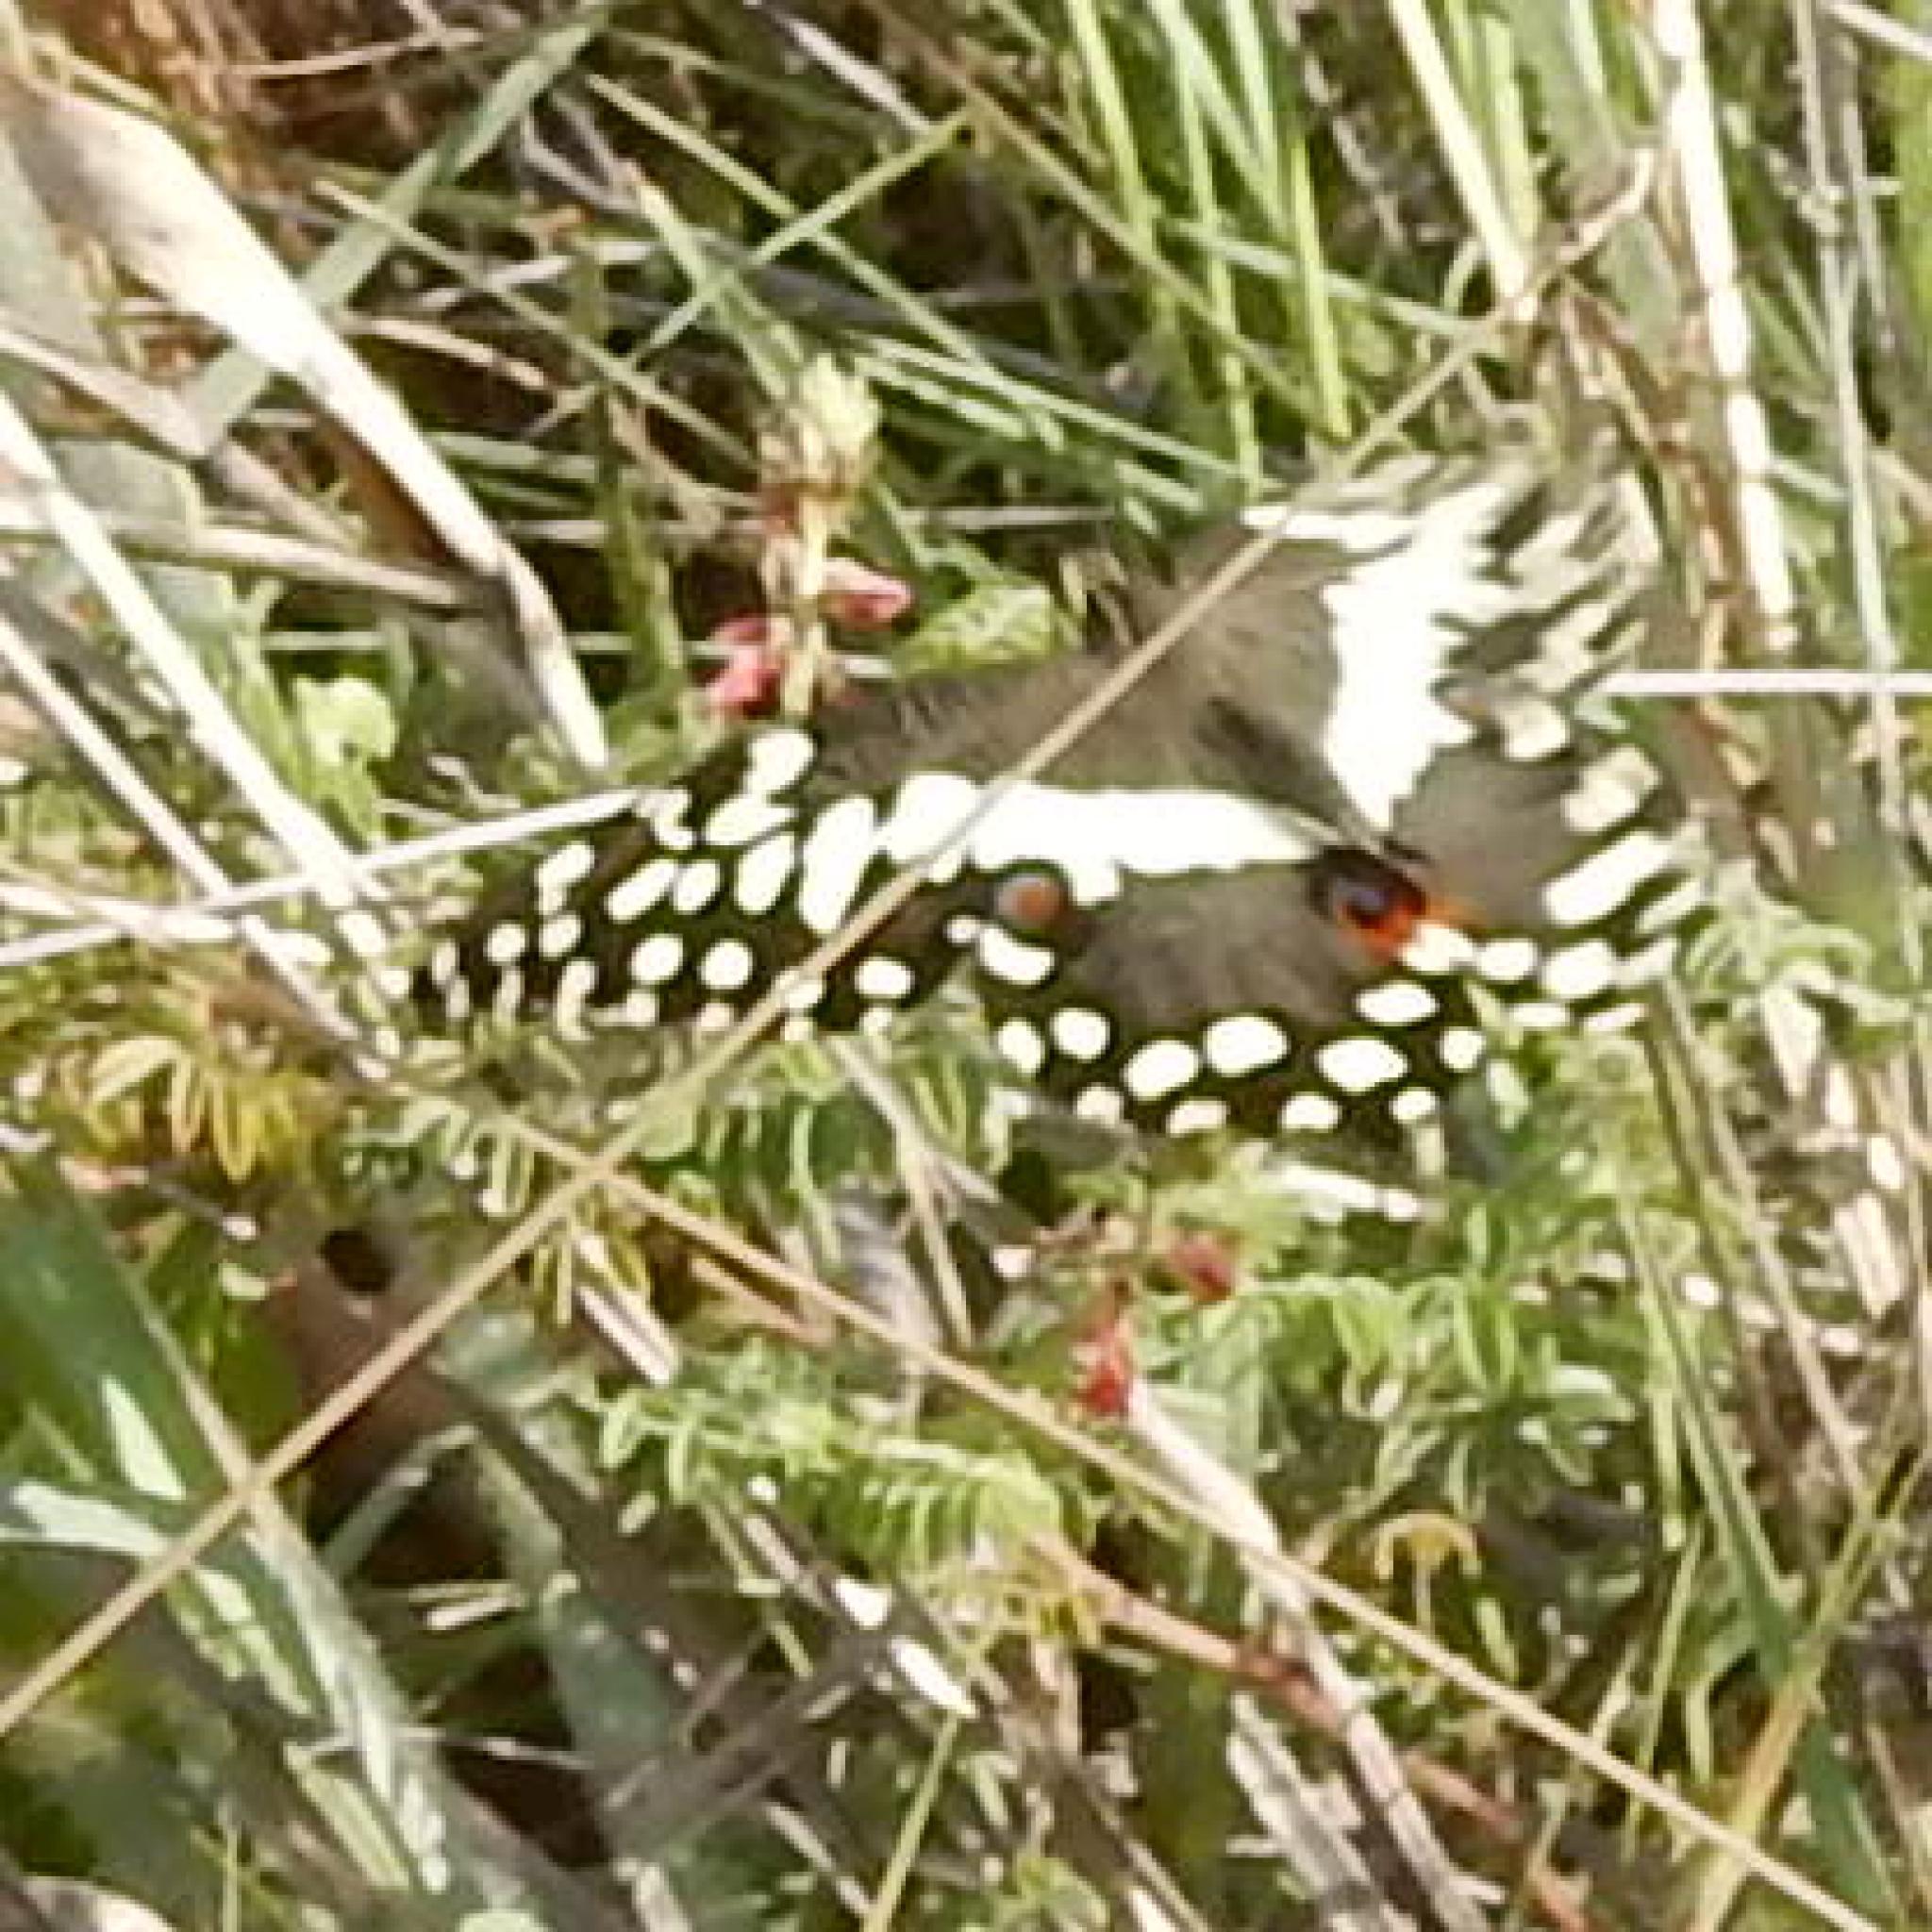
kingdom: Animalia
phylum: Arthropoda
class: Insecta
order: Lepidoptera
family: Papilionidae
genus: Papilio
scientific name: Papilio demodocus
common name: Christmas butterfly
